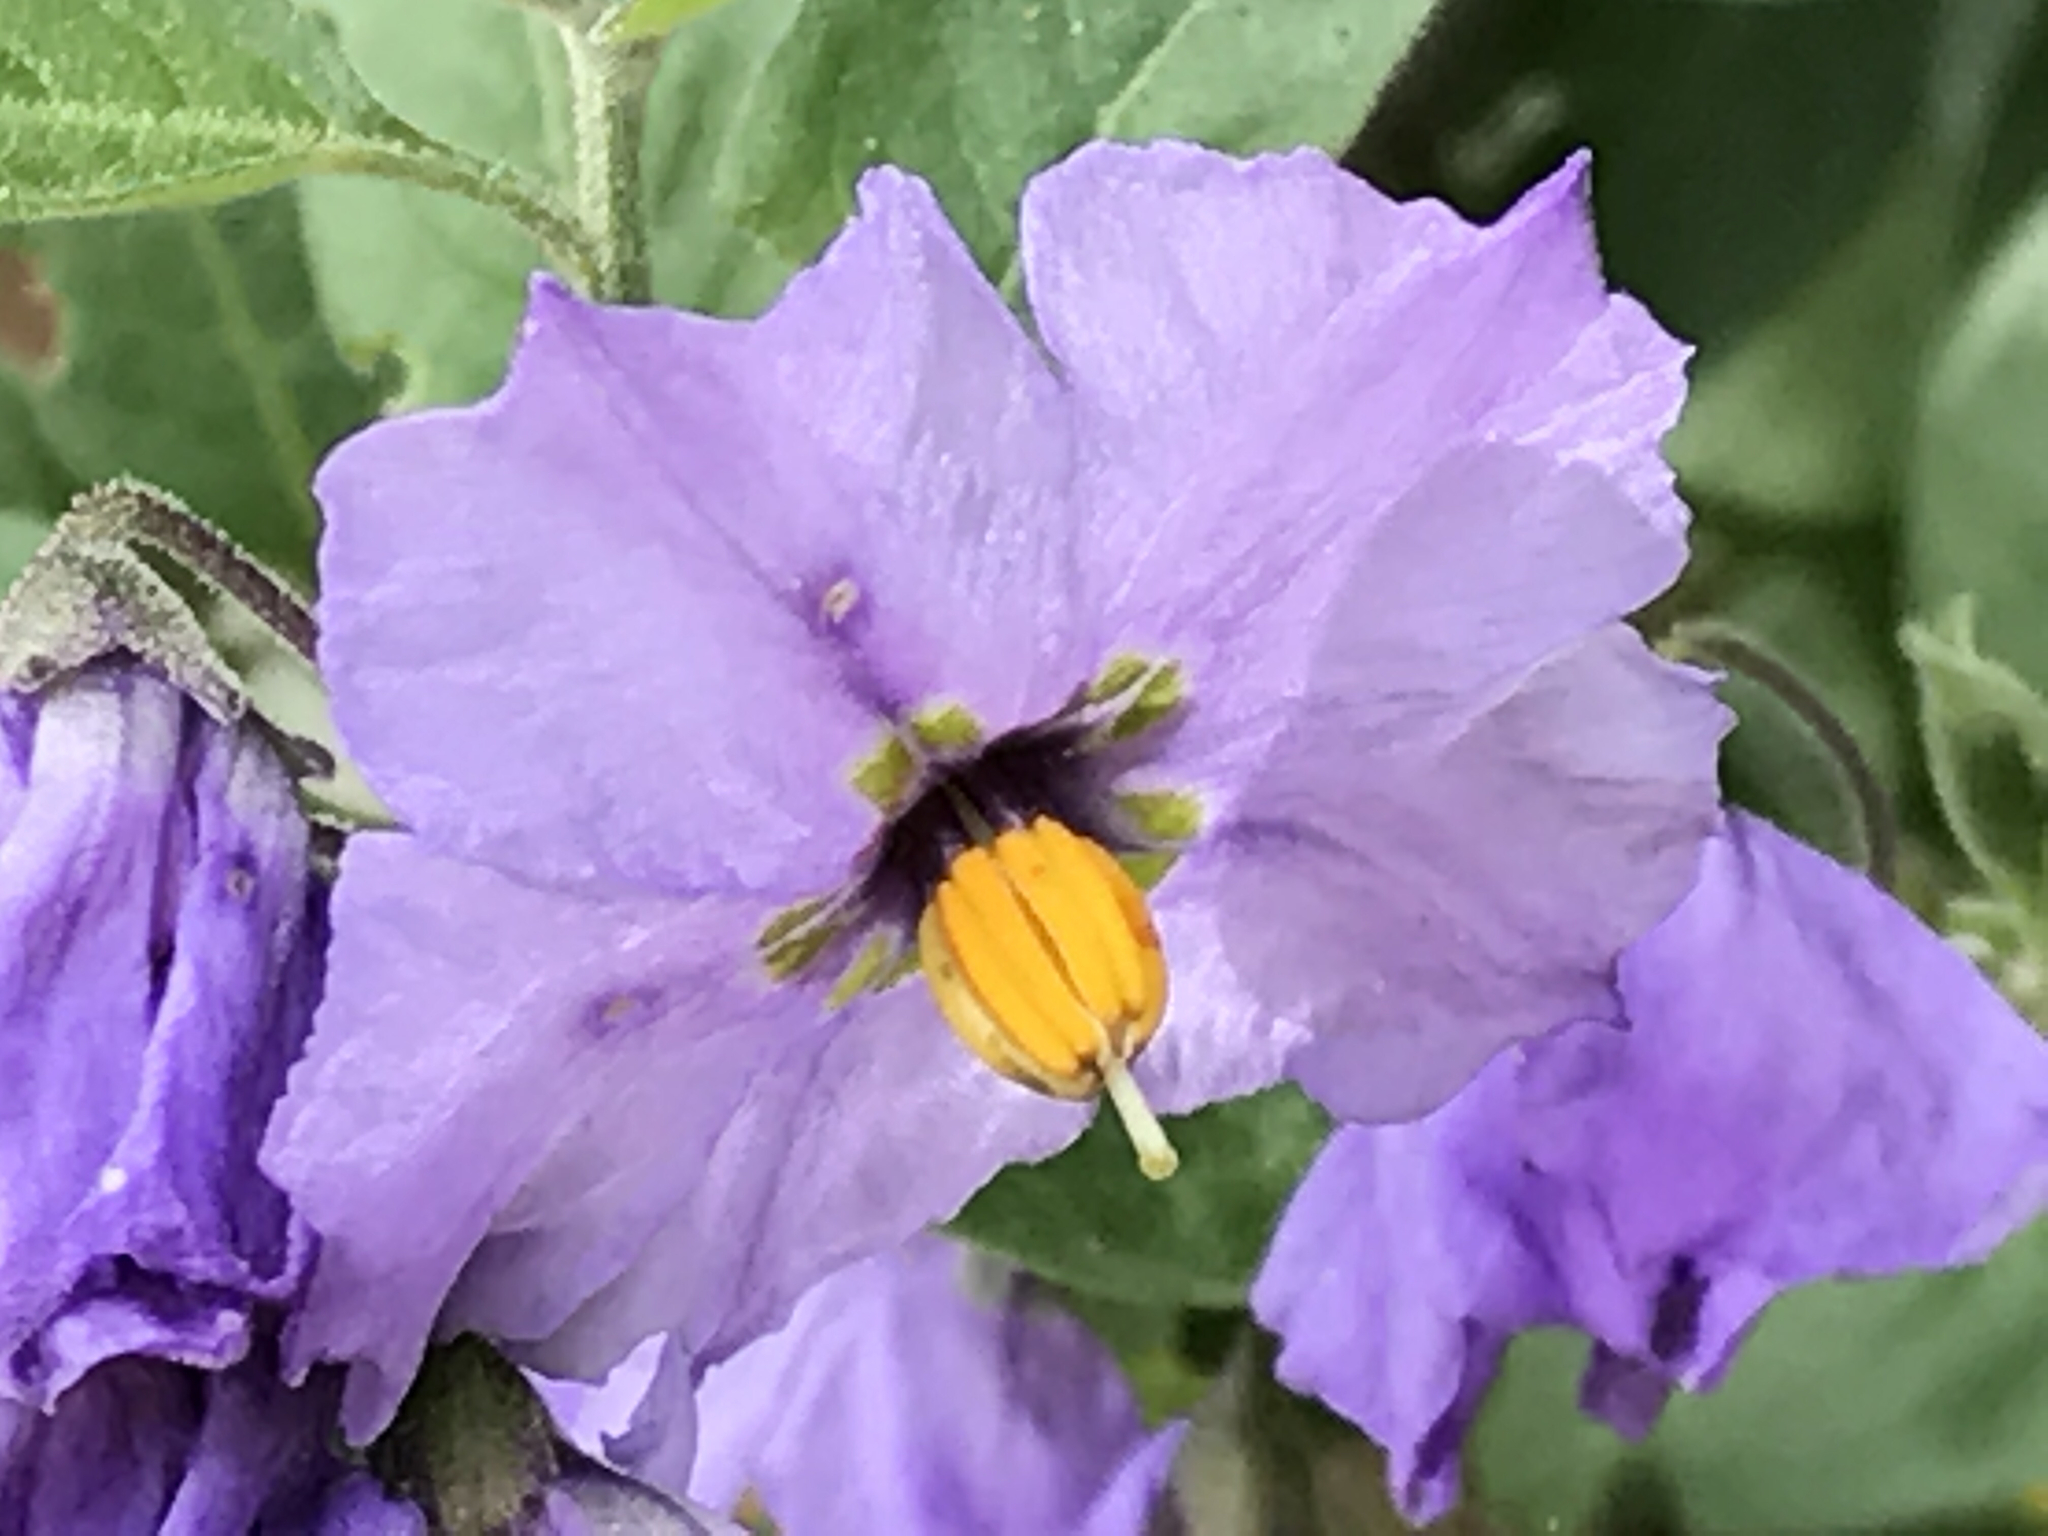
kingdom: Plantae
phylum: Tracheophyta
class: Magnoliopsida
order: Solanales
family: Solanaceae
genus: Solanum
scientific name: Solanum umbelliferum
